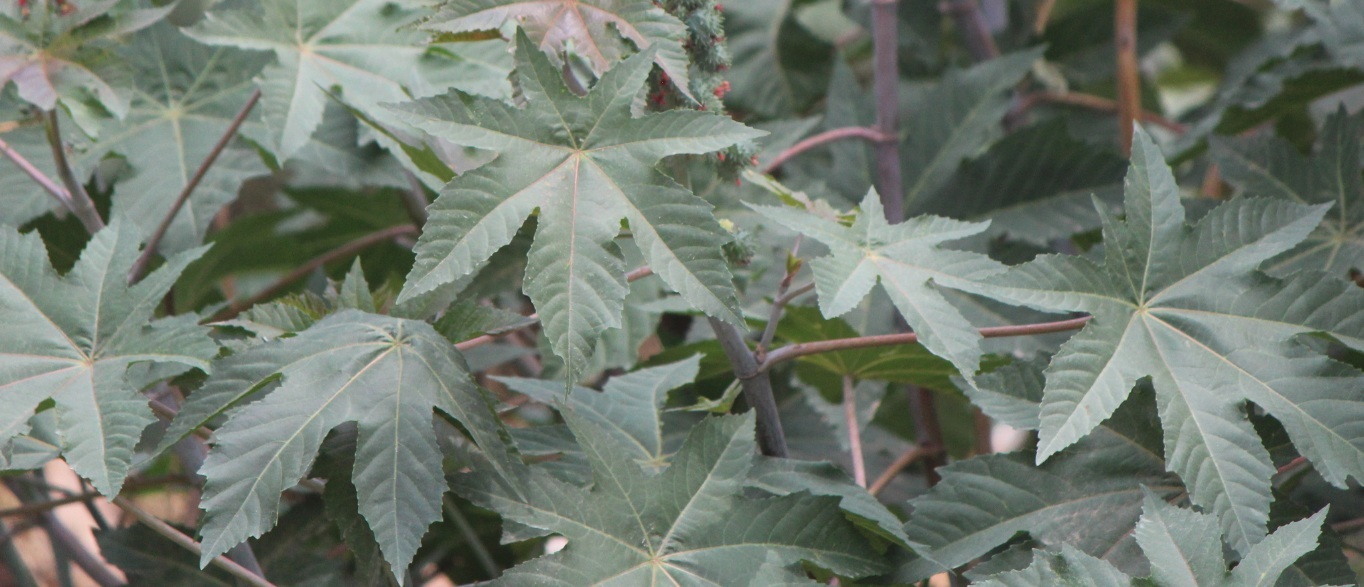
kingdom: Plantae
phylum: Tracheophyta
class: Magnoliopsida
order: Malpighiales
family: Euphorbiaceae
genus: Ricinus
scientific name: Ricinus communis
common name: Castor-oil-plant
